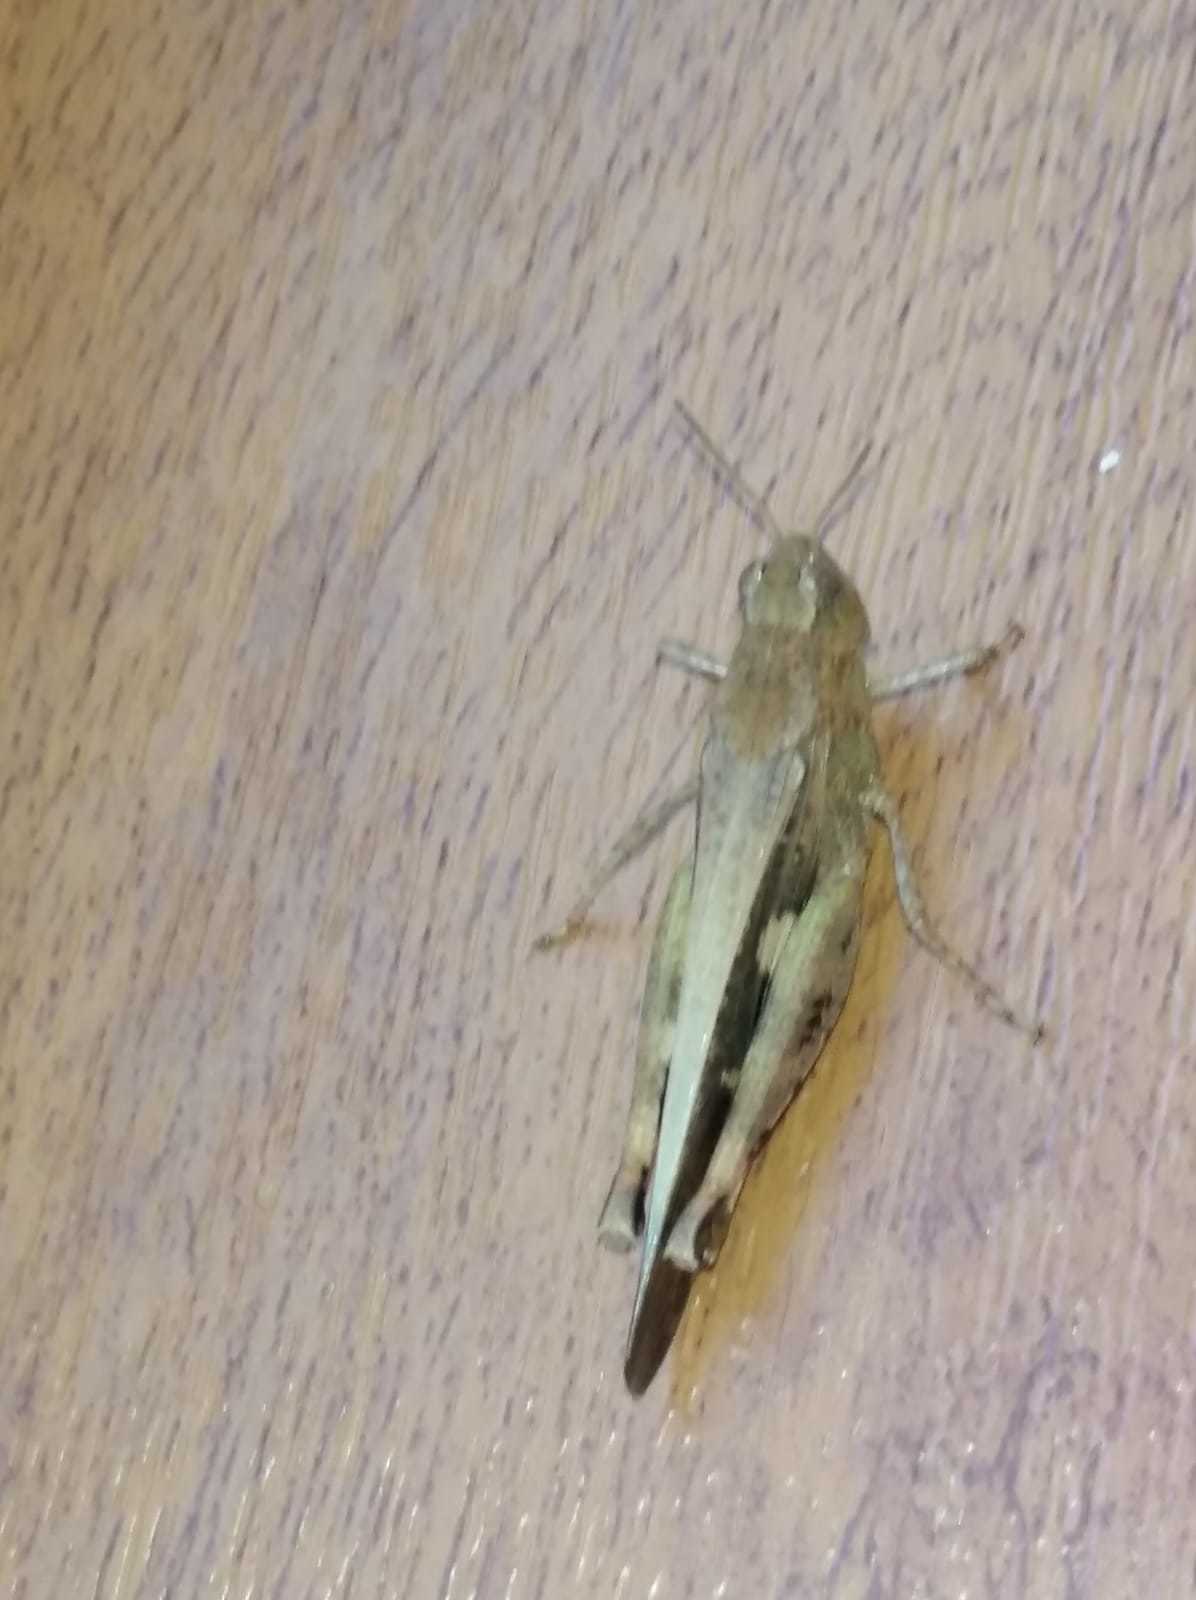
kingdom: Animalia
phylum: Arthropoda
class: Insecta
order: Orthoptera
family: Acrididae
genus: Aiolopus
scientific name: Aiolopus strepens
